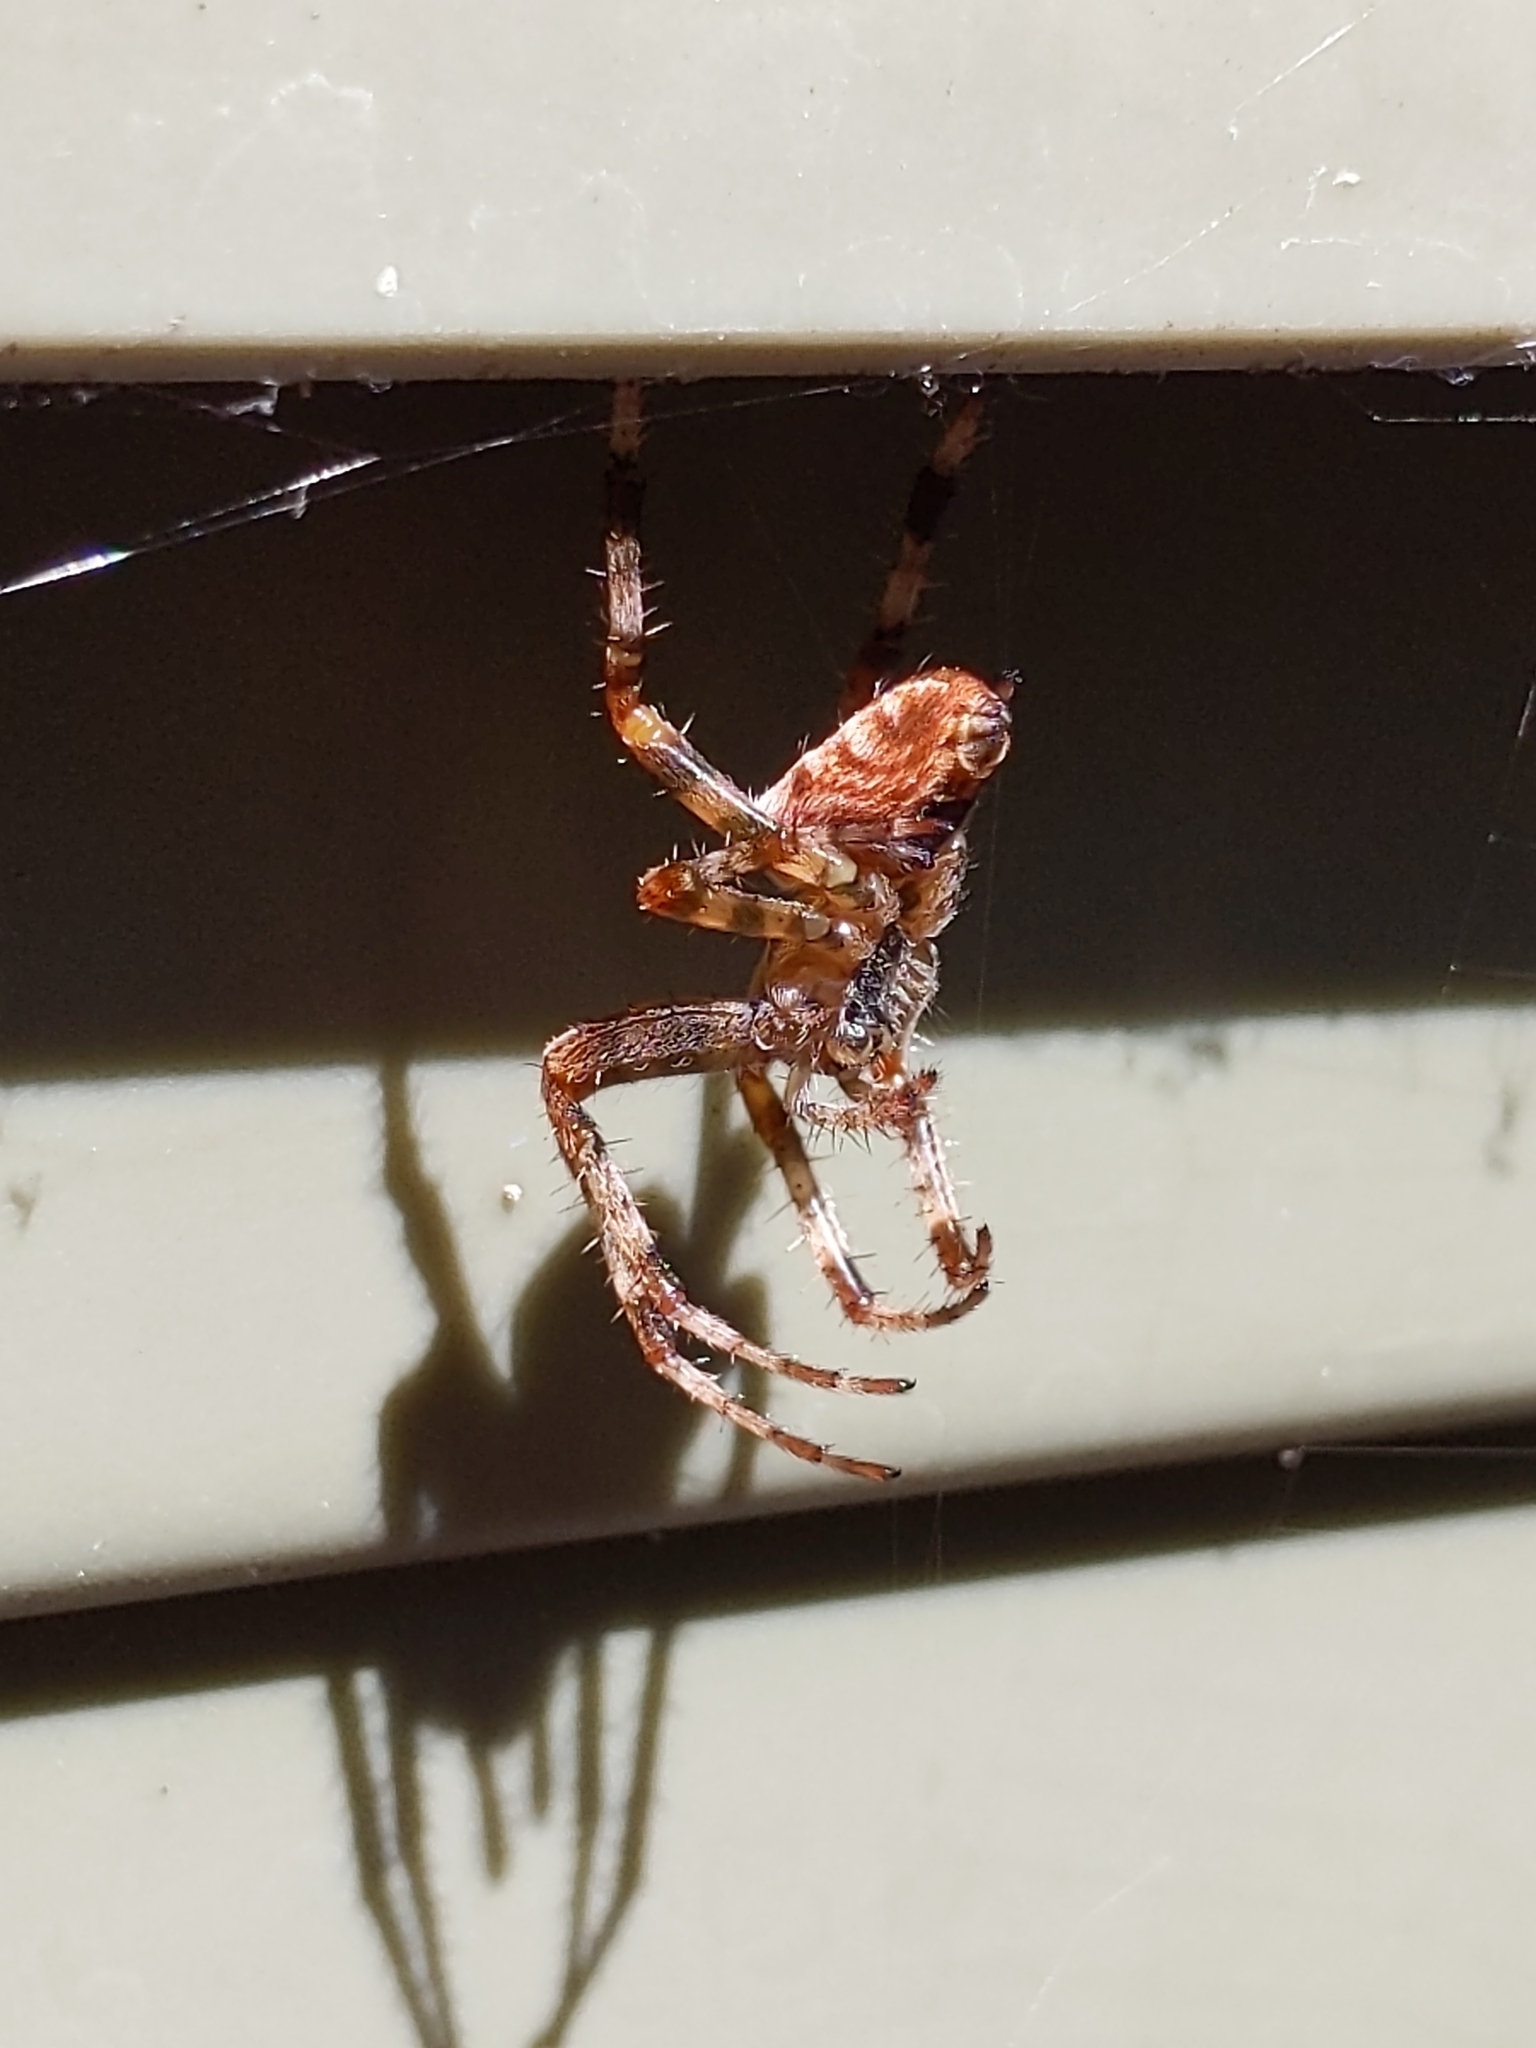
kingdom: Animalia
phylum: Arthropoda
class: Arachnida
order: Araneae
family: Araneidae
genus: Araneus
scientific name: Araneus diadematus
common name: Cross orbweaver
